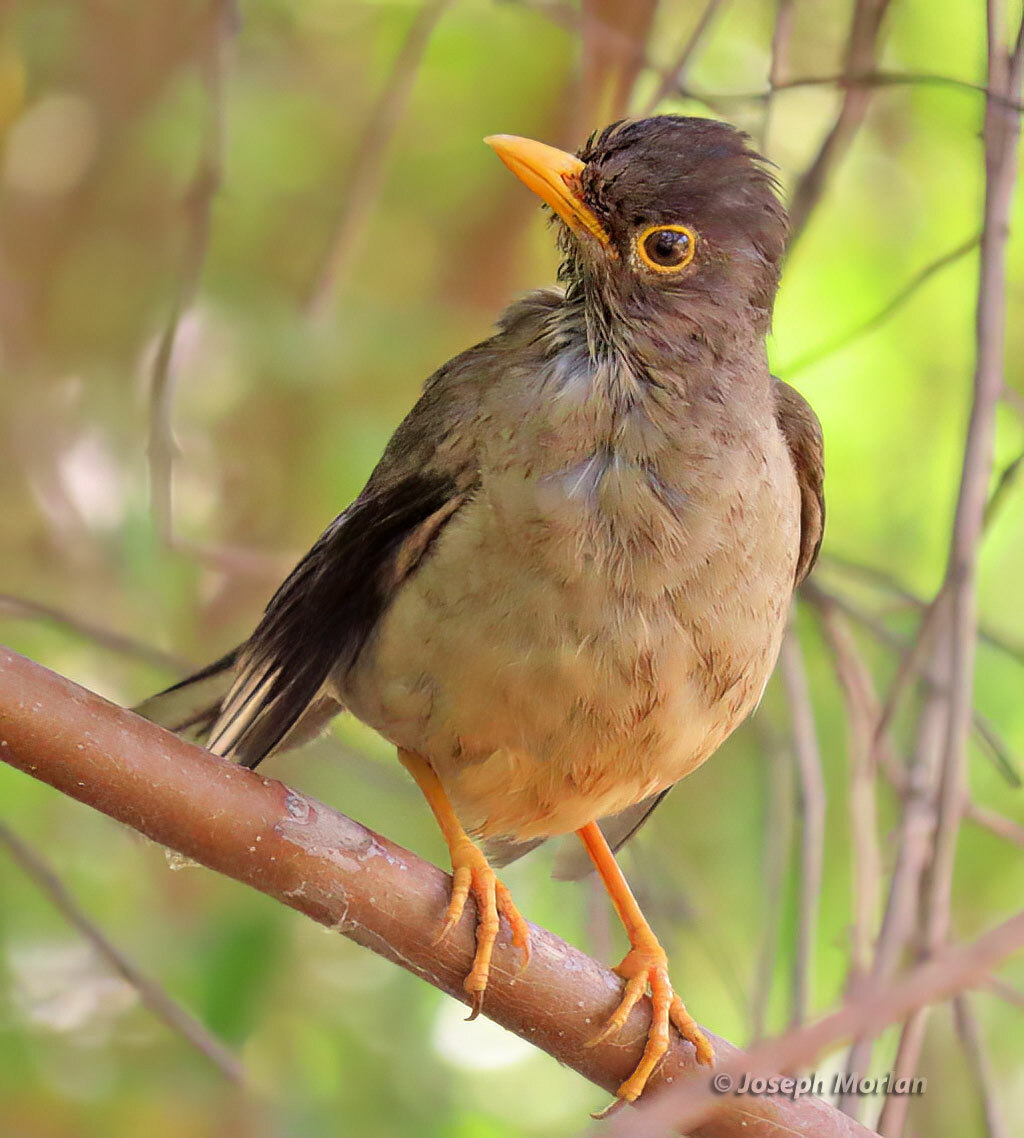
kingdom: Animalia
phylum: Chordata
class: Aves
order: Passeriformes
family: Turdidae
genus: Turdus
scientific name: Turdus falcklandii
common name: Austral thrush
